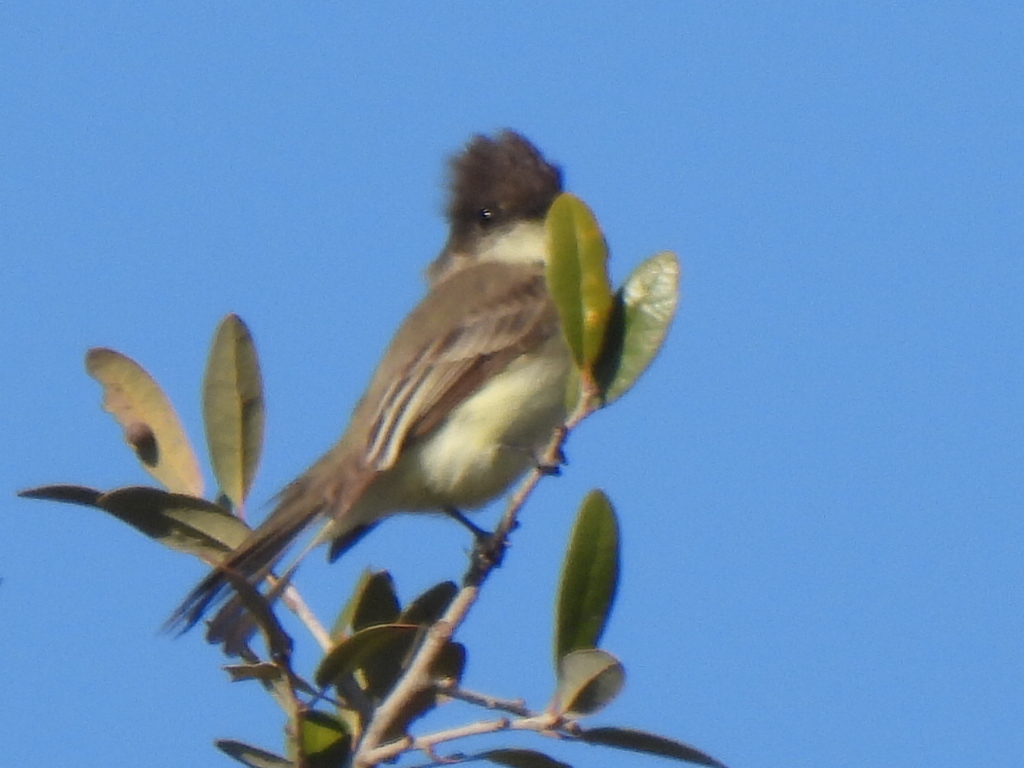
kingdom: Animalia
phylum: Chordata
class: Aves
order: Passeriformes
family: Tyrannidae
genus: Sayornis
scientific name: Sayornis phoebe
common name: Eastern phoebe
